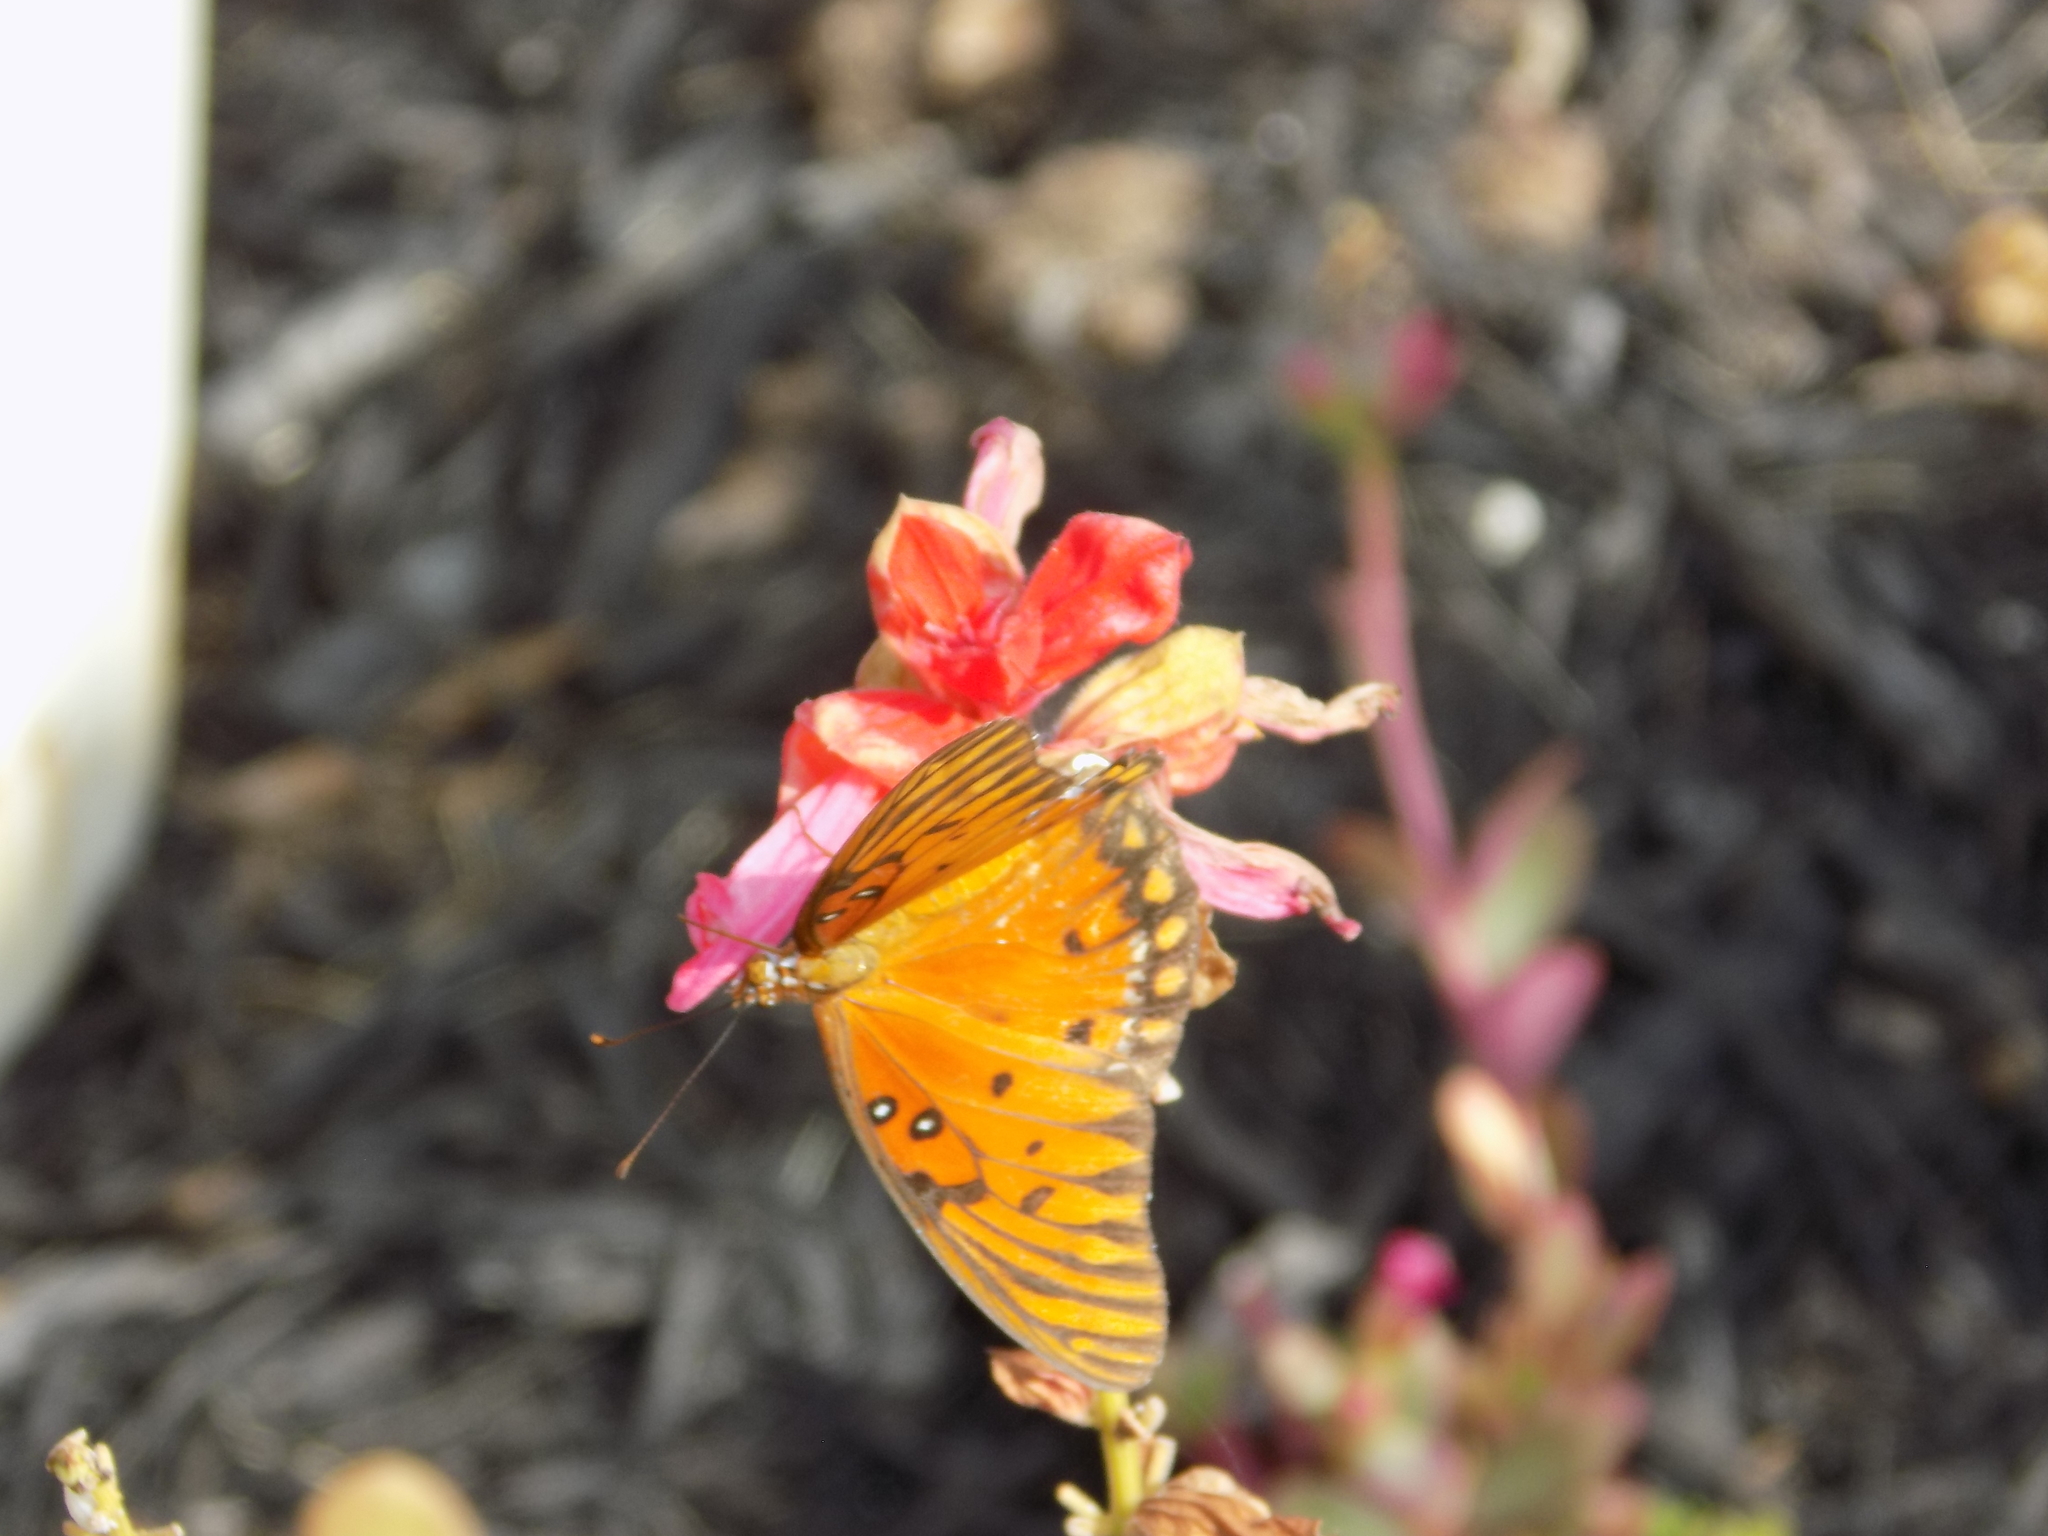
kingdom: Animalia
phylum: Arthropoda
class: Insecta
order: Lepidoptera
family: Nymphalidae
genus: Dione
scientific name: Dione vanillae
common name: Gulf fritillary
